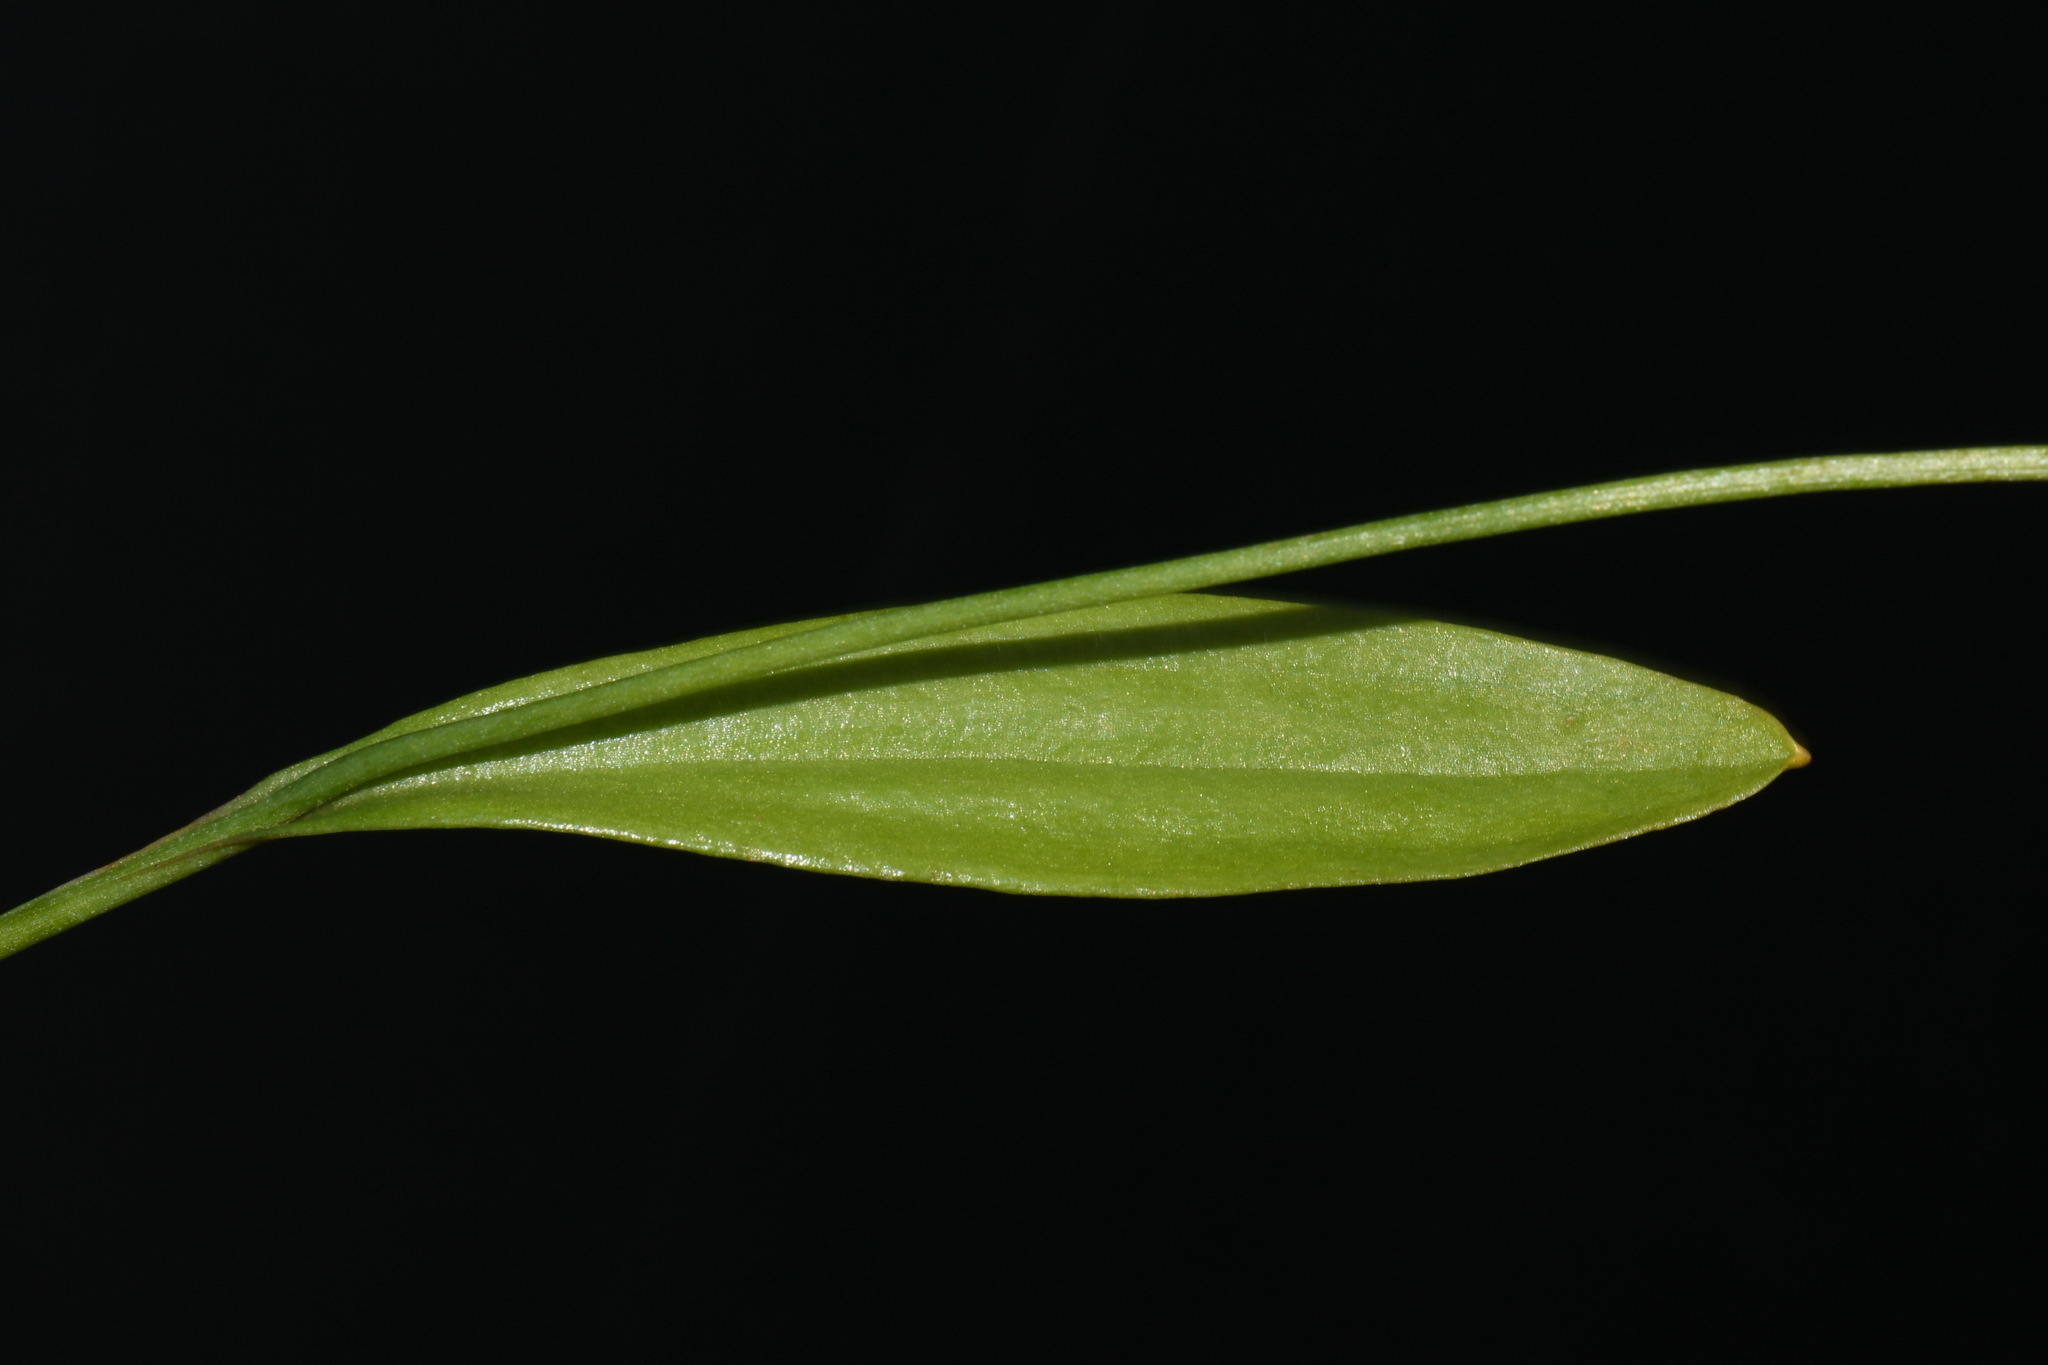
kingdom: Plantae
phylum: Tracheophyta
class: Liliopsida
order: Asparagales
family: Orchidaceae
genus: Pogonia
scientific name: Pogonia ophioglossoides
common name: Rose pogonia
